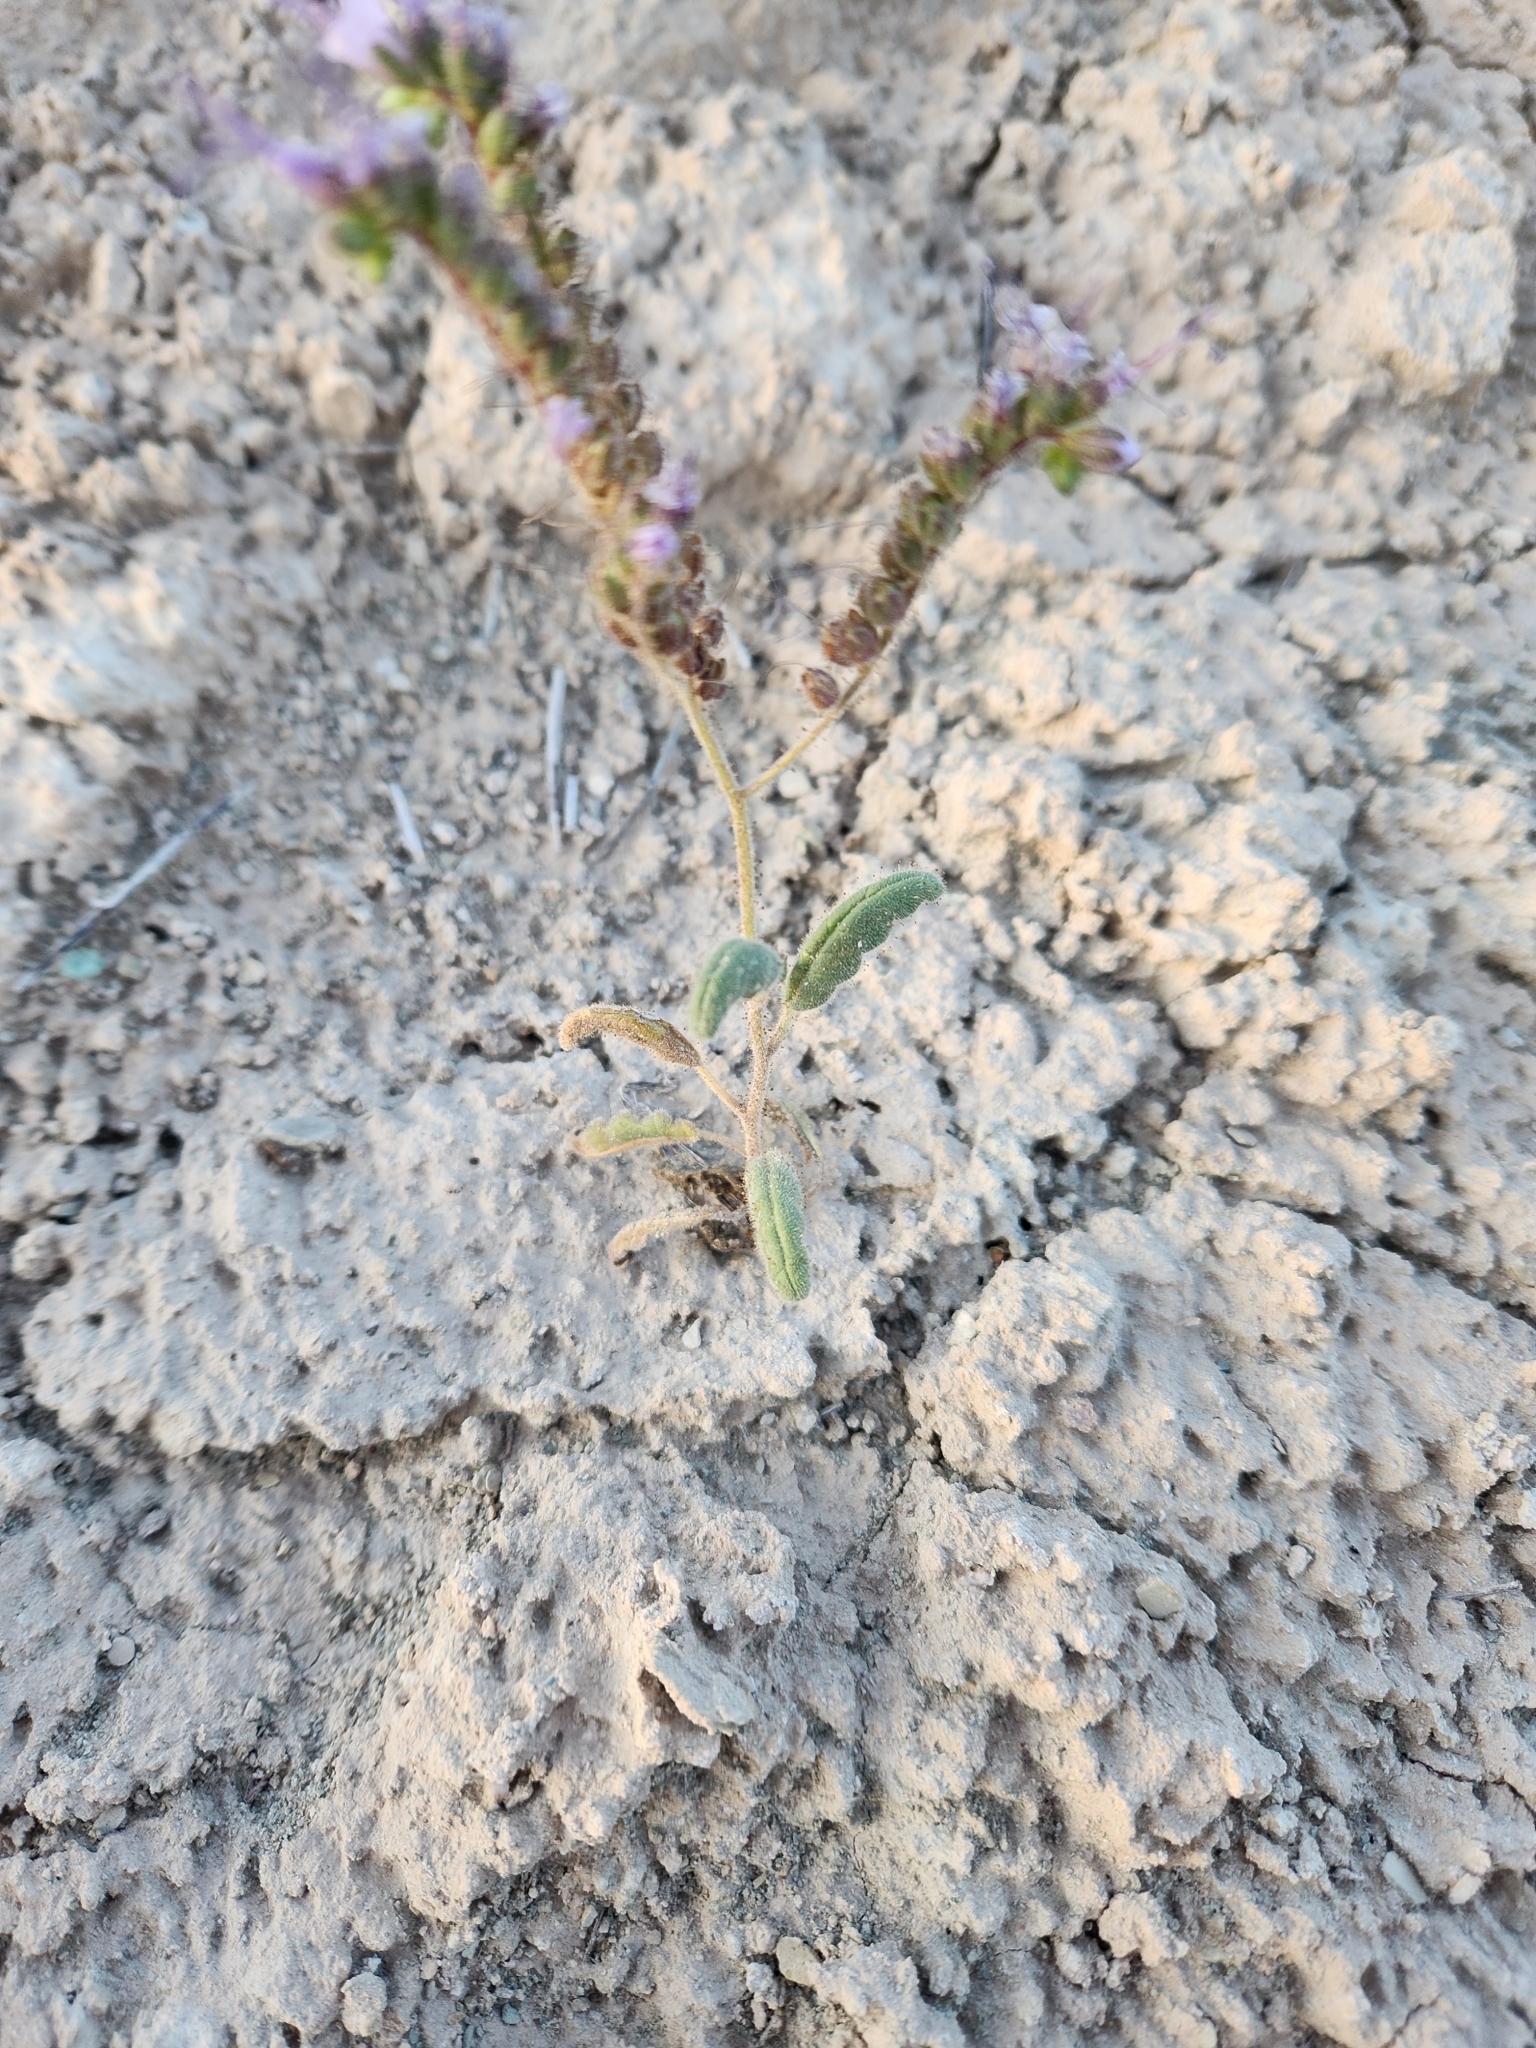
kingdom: Plantae
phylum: Tracheophyta
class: Magnoliopsida
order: Boraginales
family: Hydrophyllaceae
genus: Phacelia
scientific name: Phacelia crenulata
